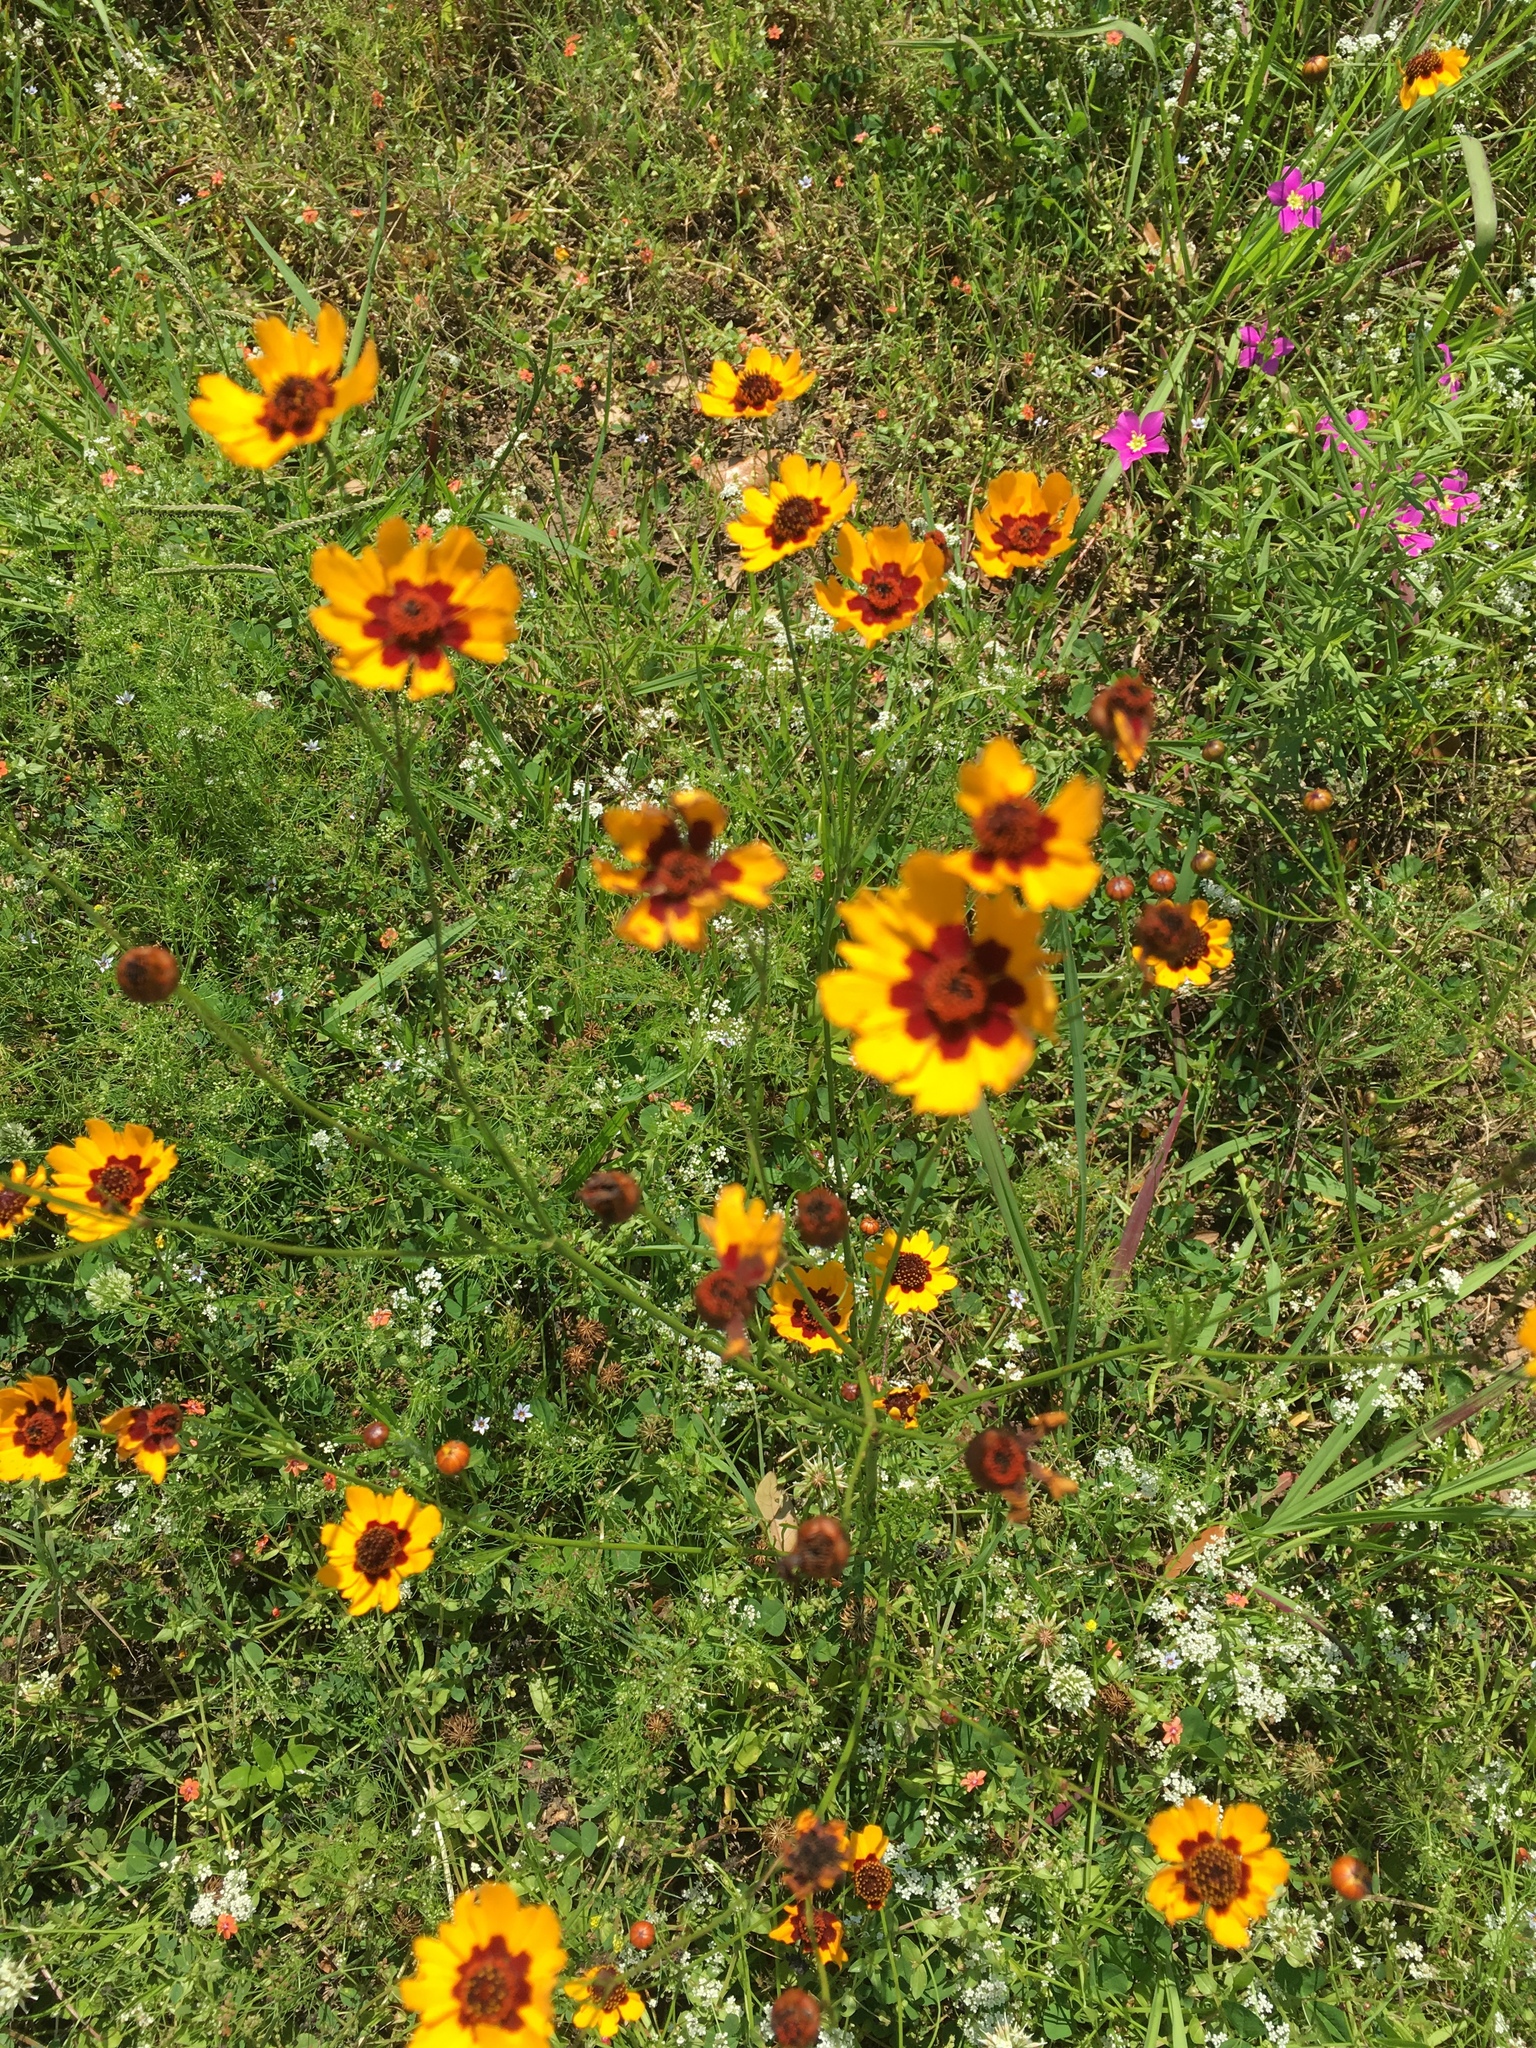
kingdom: Plantae
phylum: Tracheophyta
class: Magnoliopsida
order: Asterales
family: Asteraceae
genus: Coreopsis
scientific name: Coreopsis tinctoria
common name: Garden tickseed
